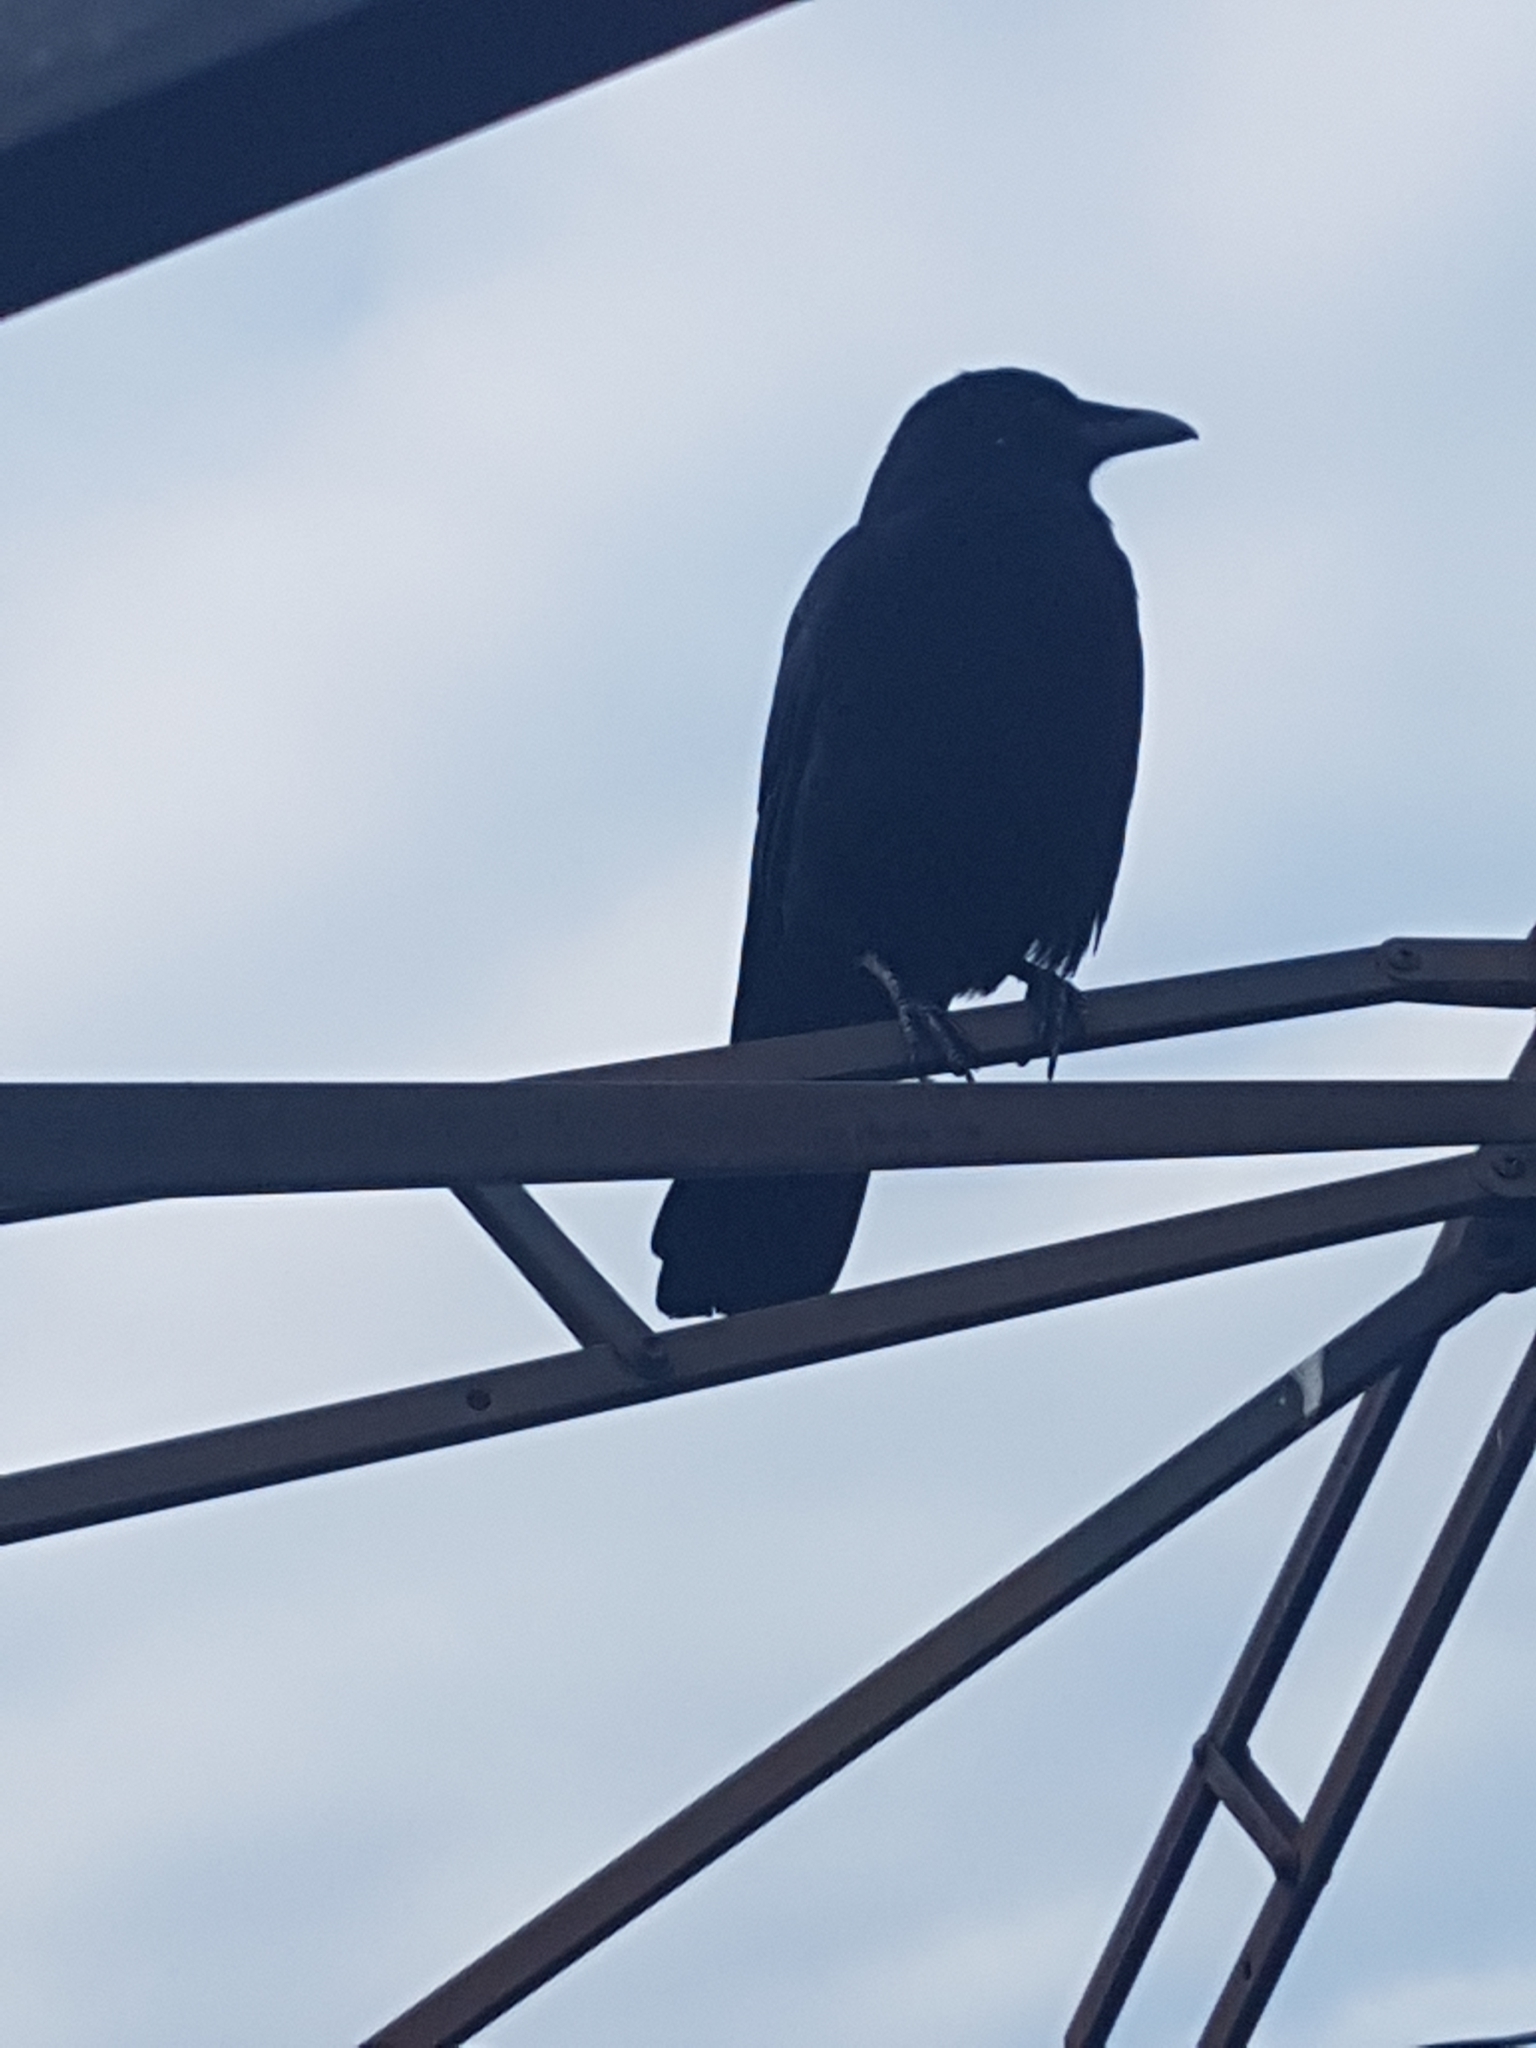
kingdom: Animalia
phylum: Chordata
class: Aves
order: Passeriformes
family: Corvidae
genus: Corvus
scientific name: Corvus brachyrhynchos
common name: American crow
